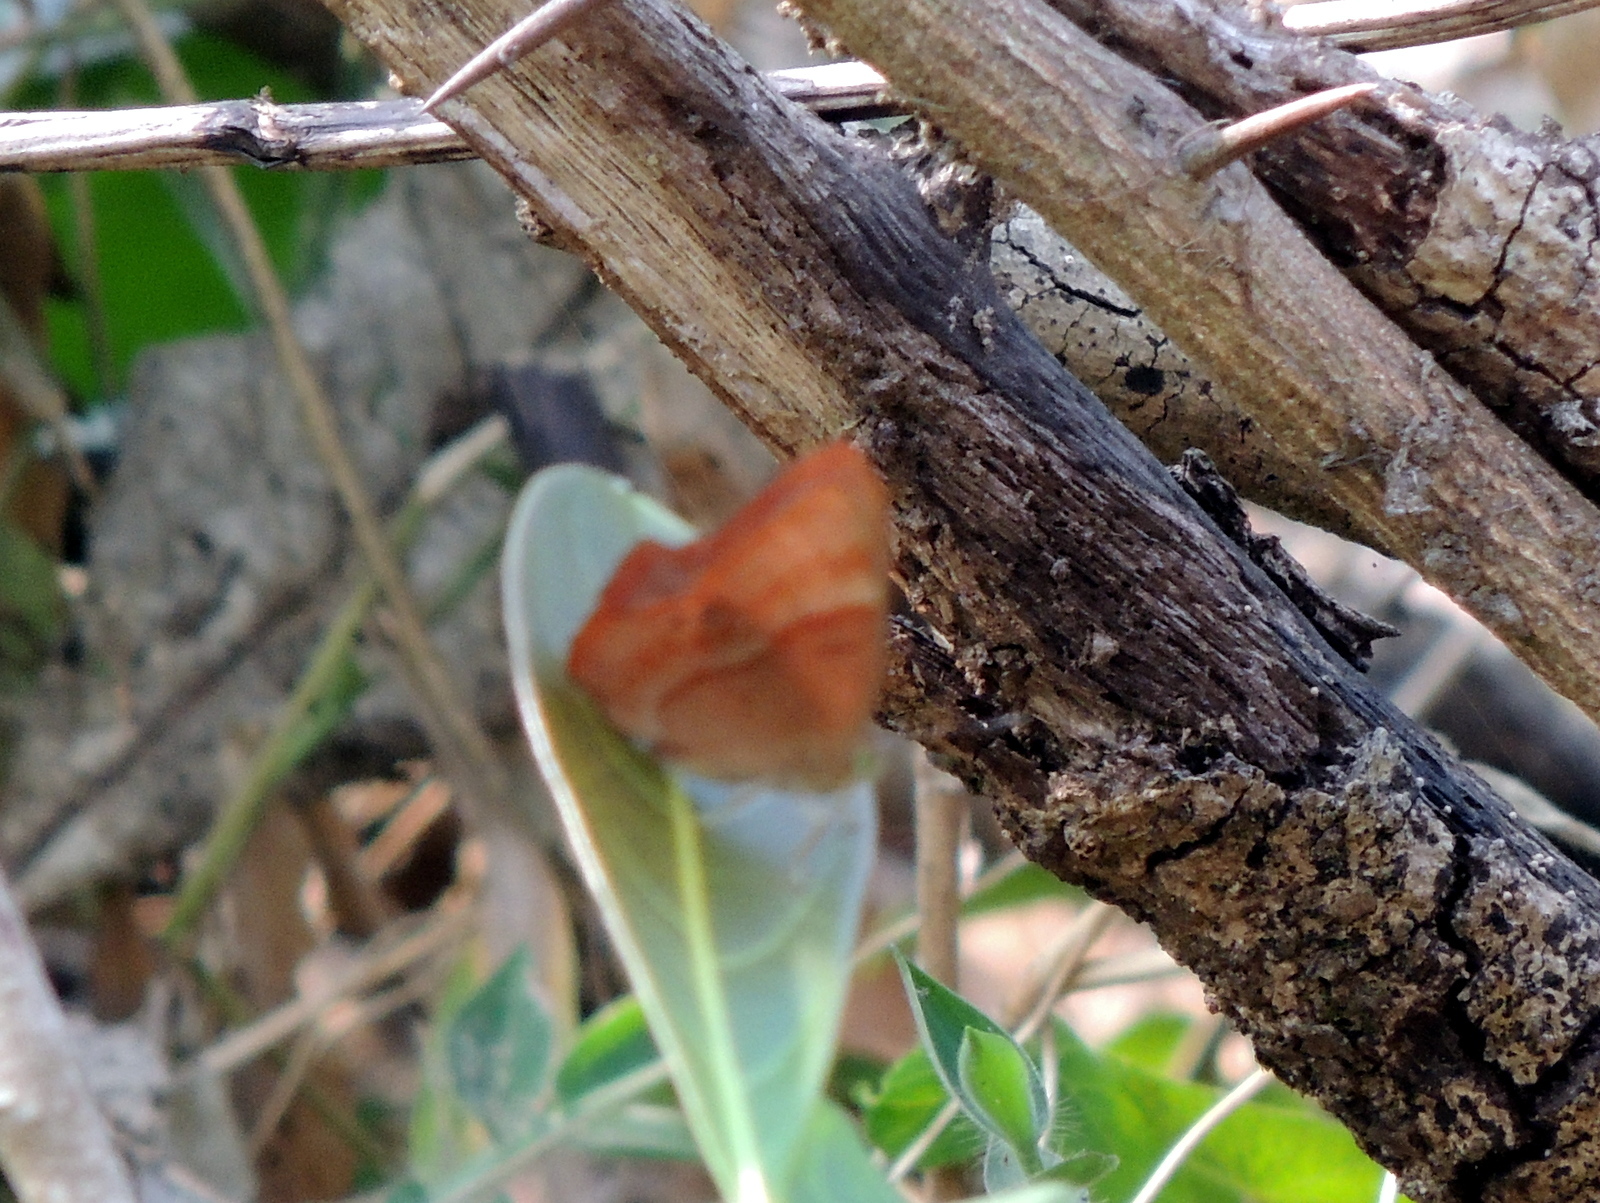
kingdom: Animalia
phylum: Arthropoda
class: Insecta
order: Lepidoptera
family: Lycaenidae
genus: Abisara
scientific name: Abisara bifasciata
